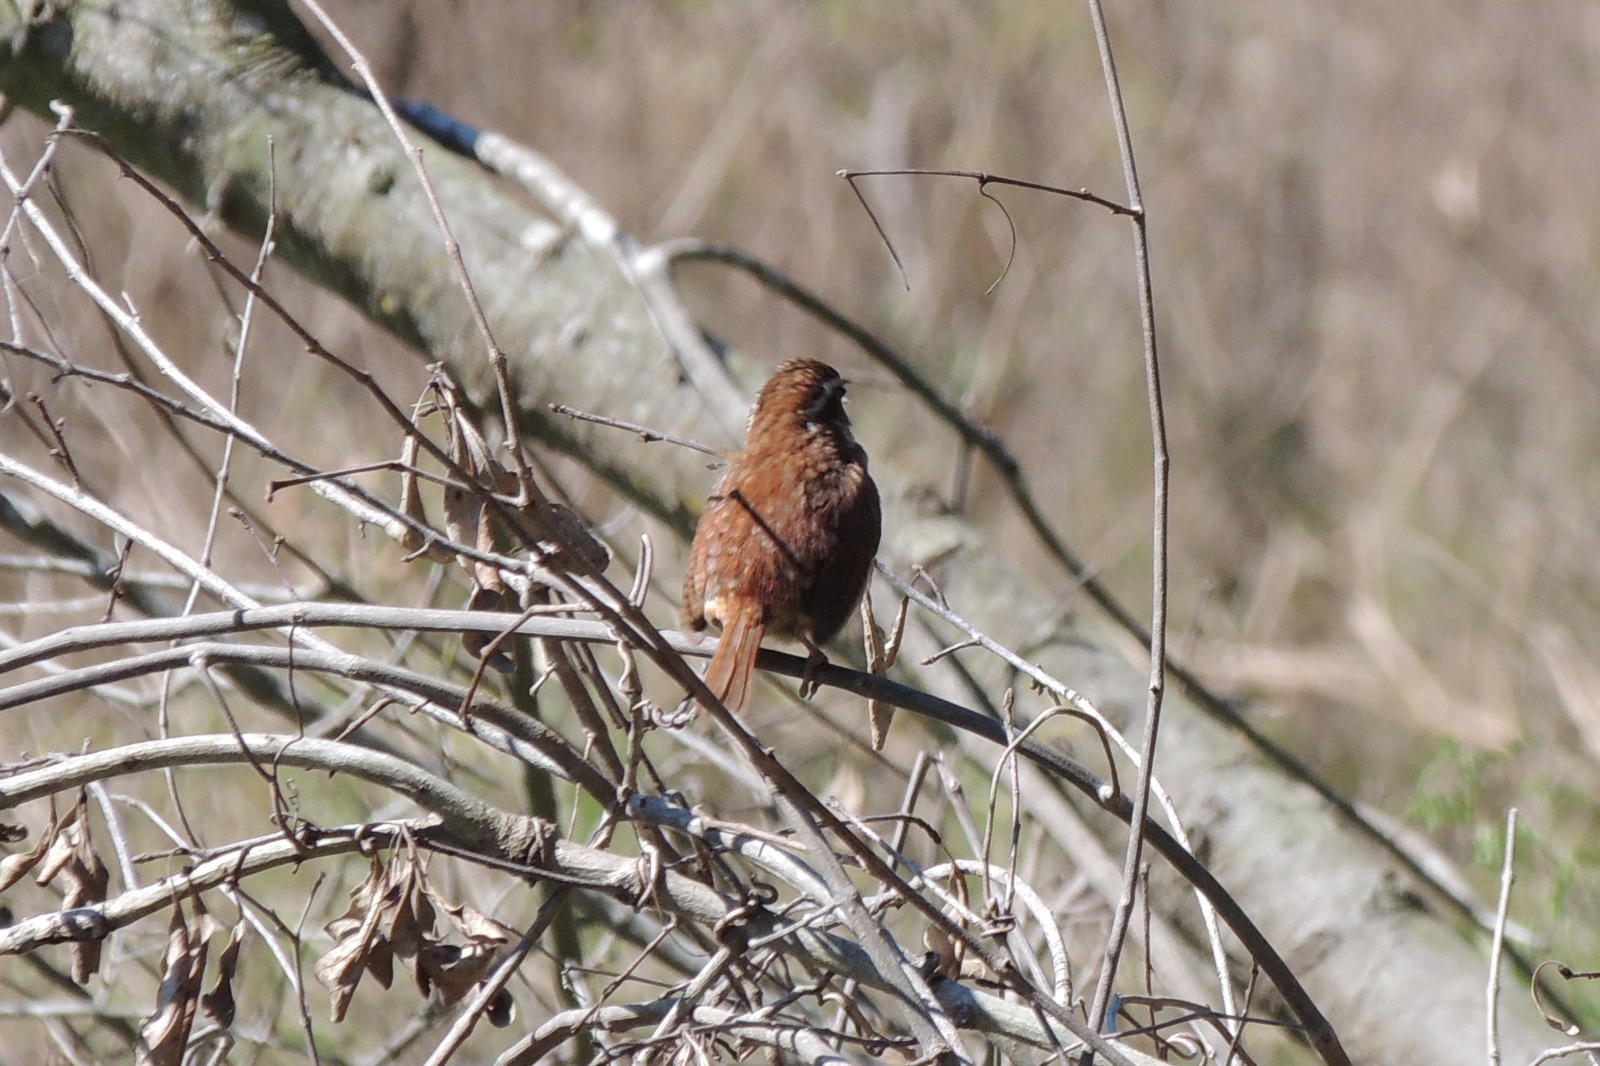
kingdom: Animalia
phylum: Chordata
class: Aves
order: Passeriformes
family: Troglodytidae
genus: Thryothorus
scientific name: Thryothorus ludovicianus
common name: Carolina wren
